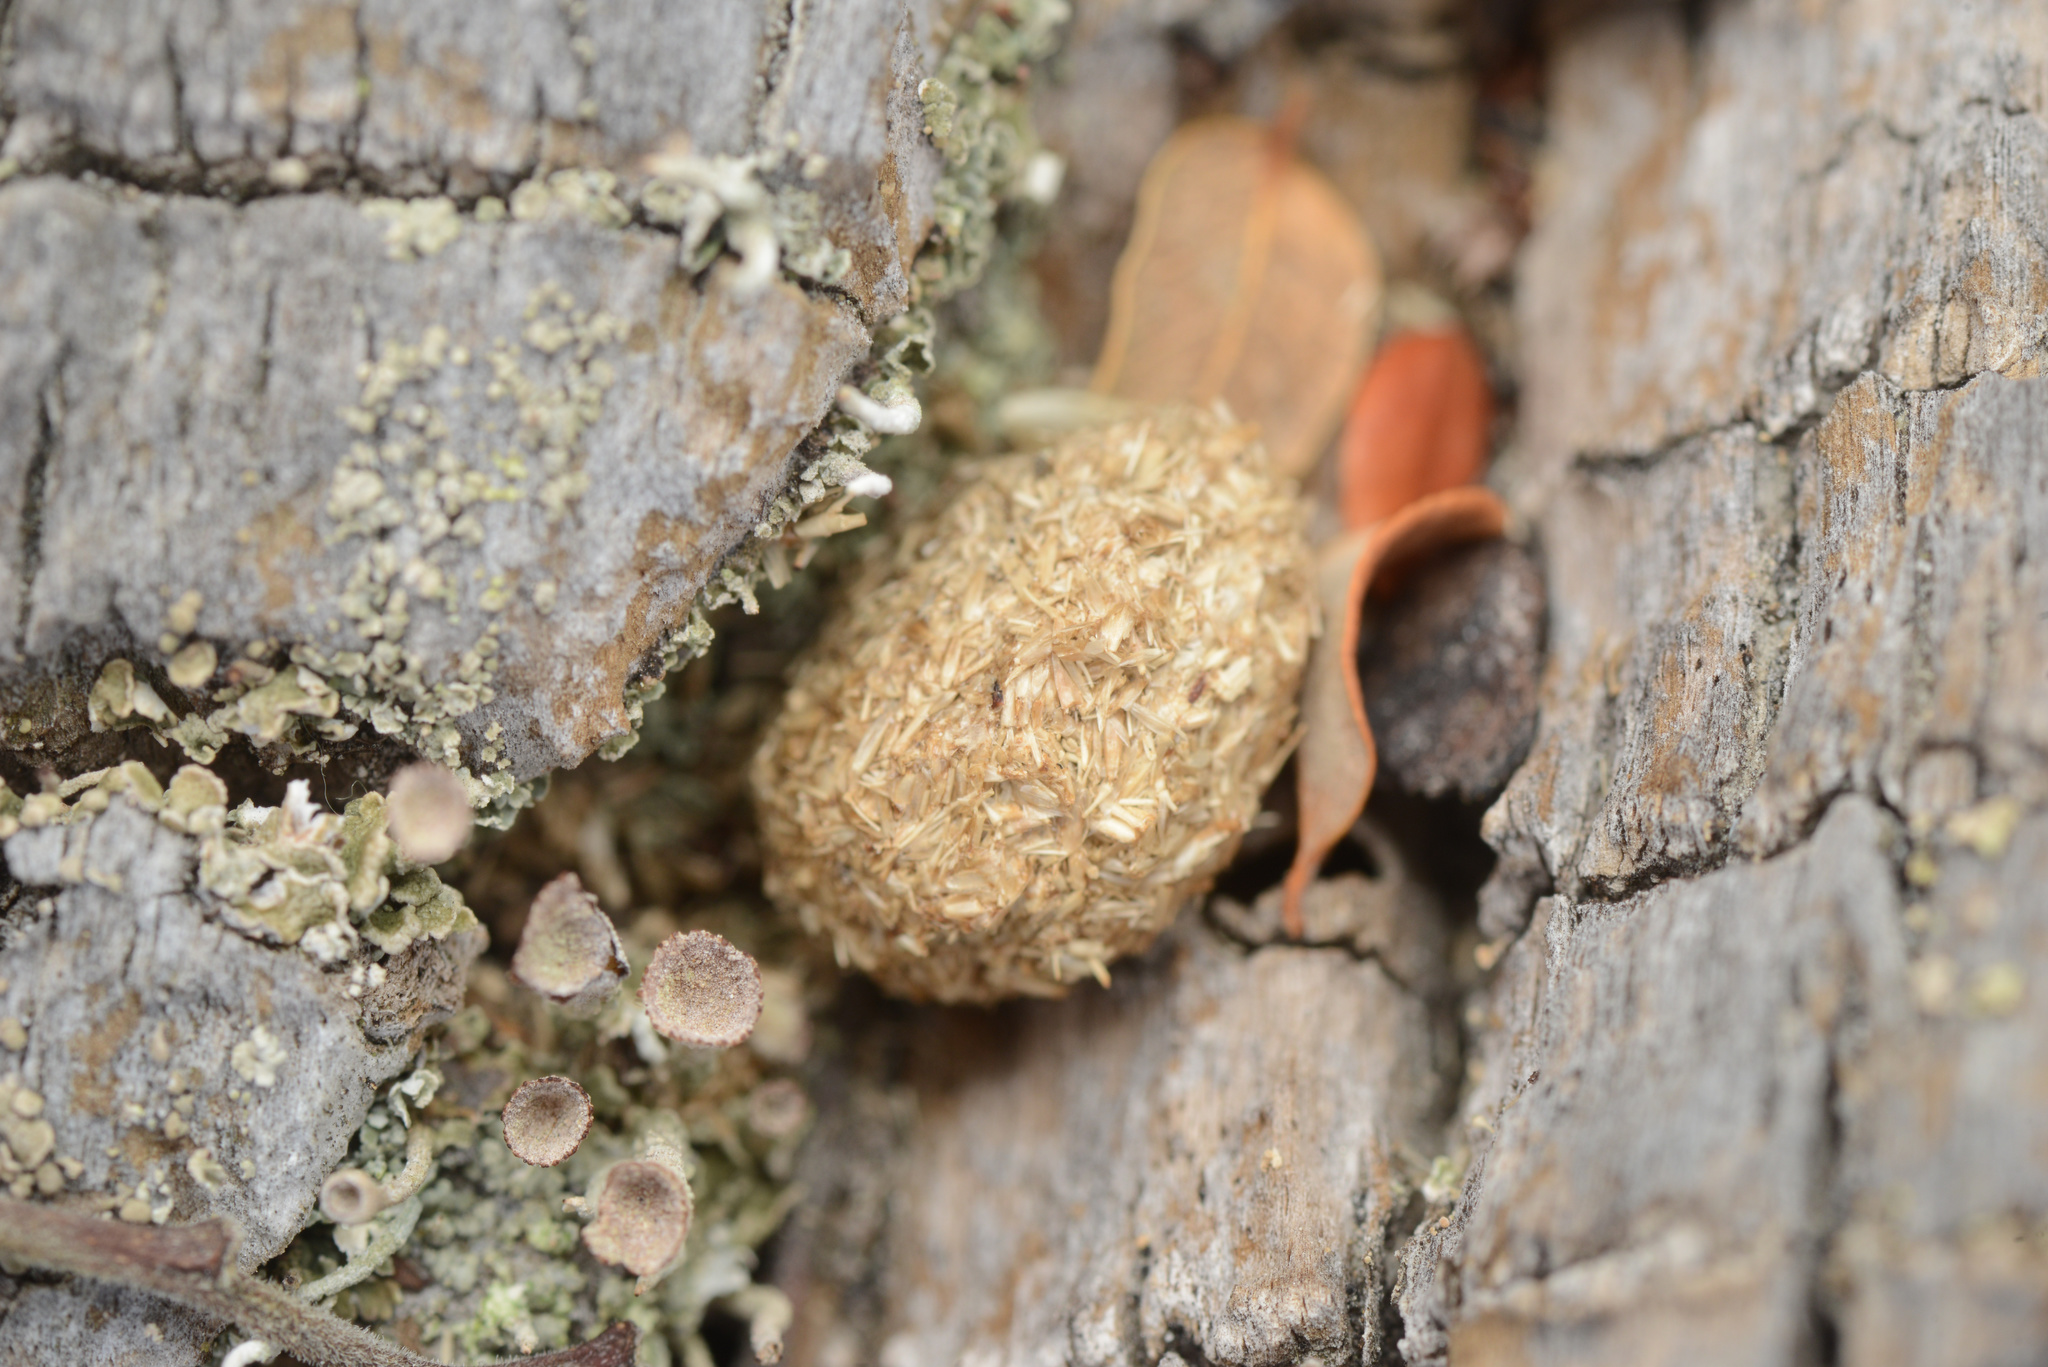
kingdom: Animalia
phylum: Chordata
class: Mammalia
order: Lagomorpha
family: Leporidae
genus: Lepus
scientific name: Lepus europaeus
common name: European hare
